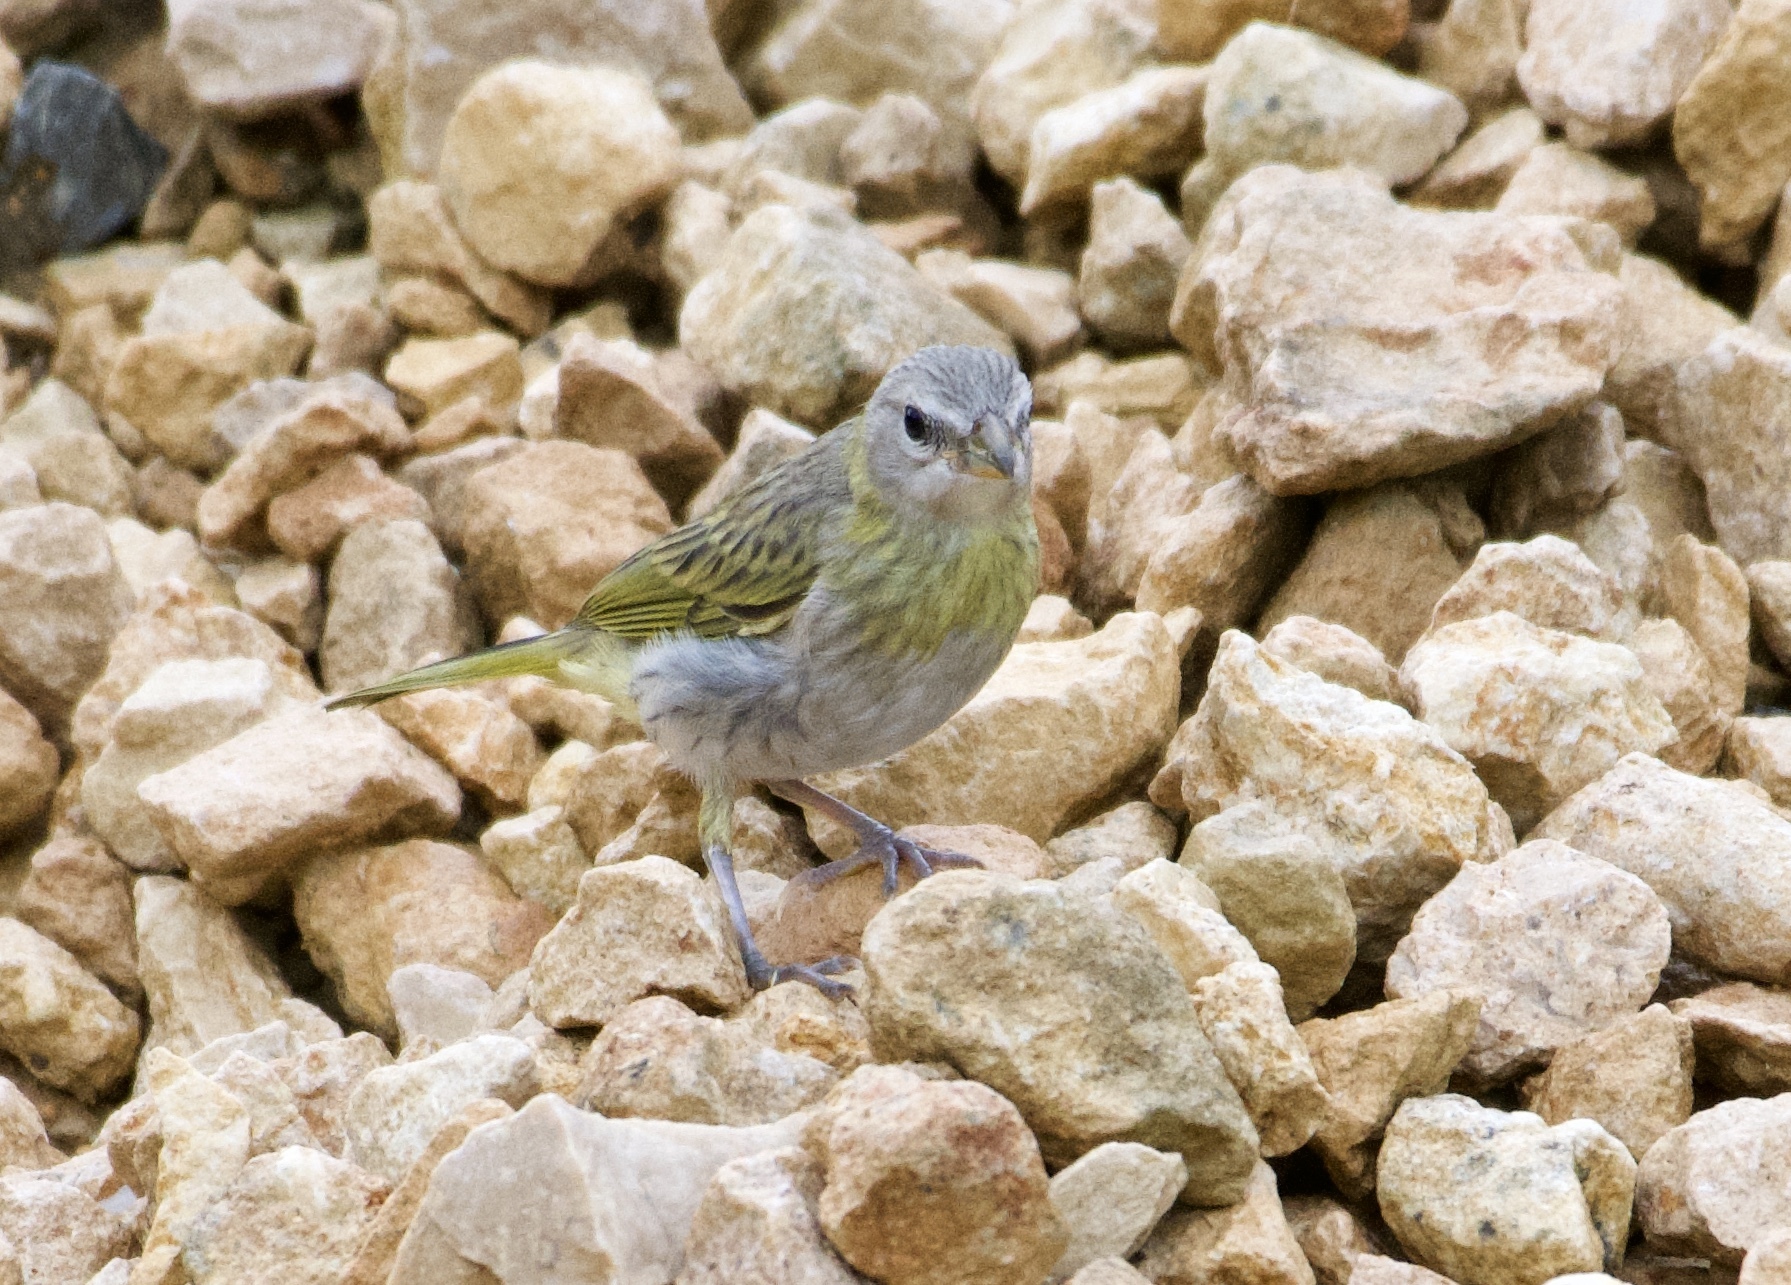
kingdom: Animalia
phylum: Chordata
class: Aves
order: Passeriformes
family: Thraupidae
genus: Sicalis
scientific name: Sicalis flaveola
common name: Saffron finch
